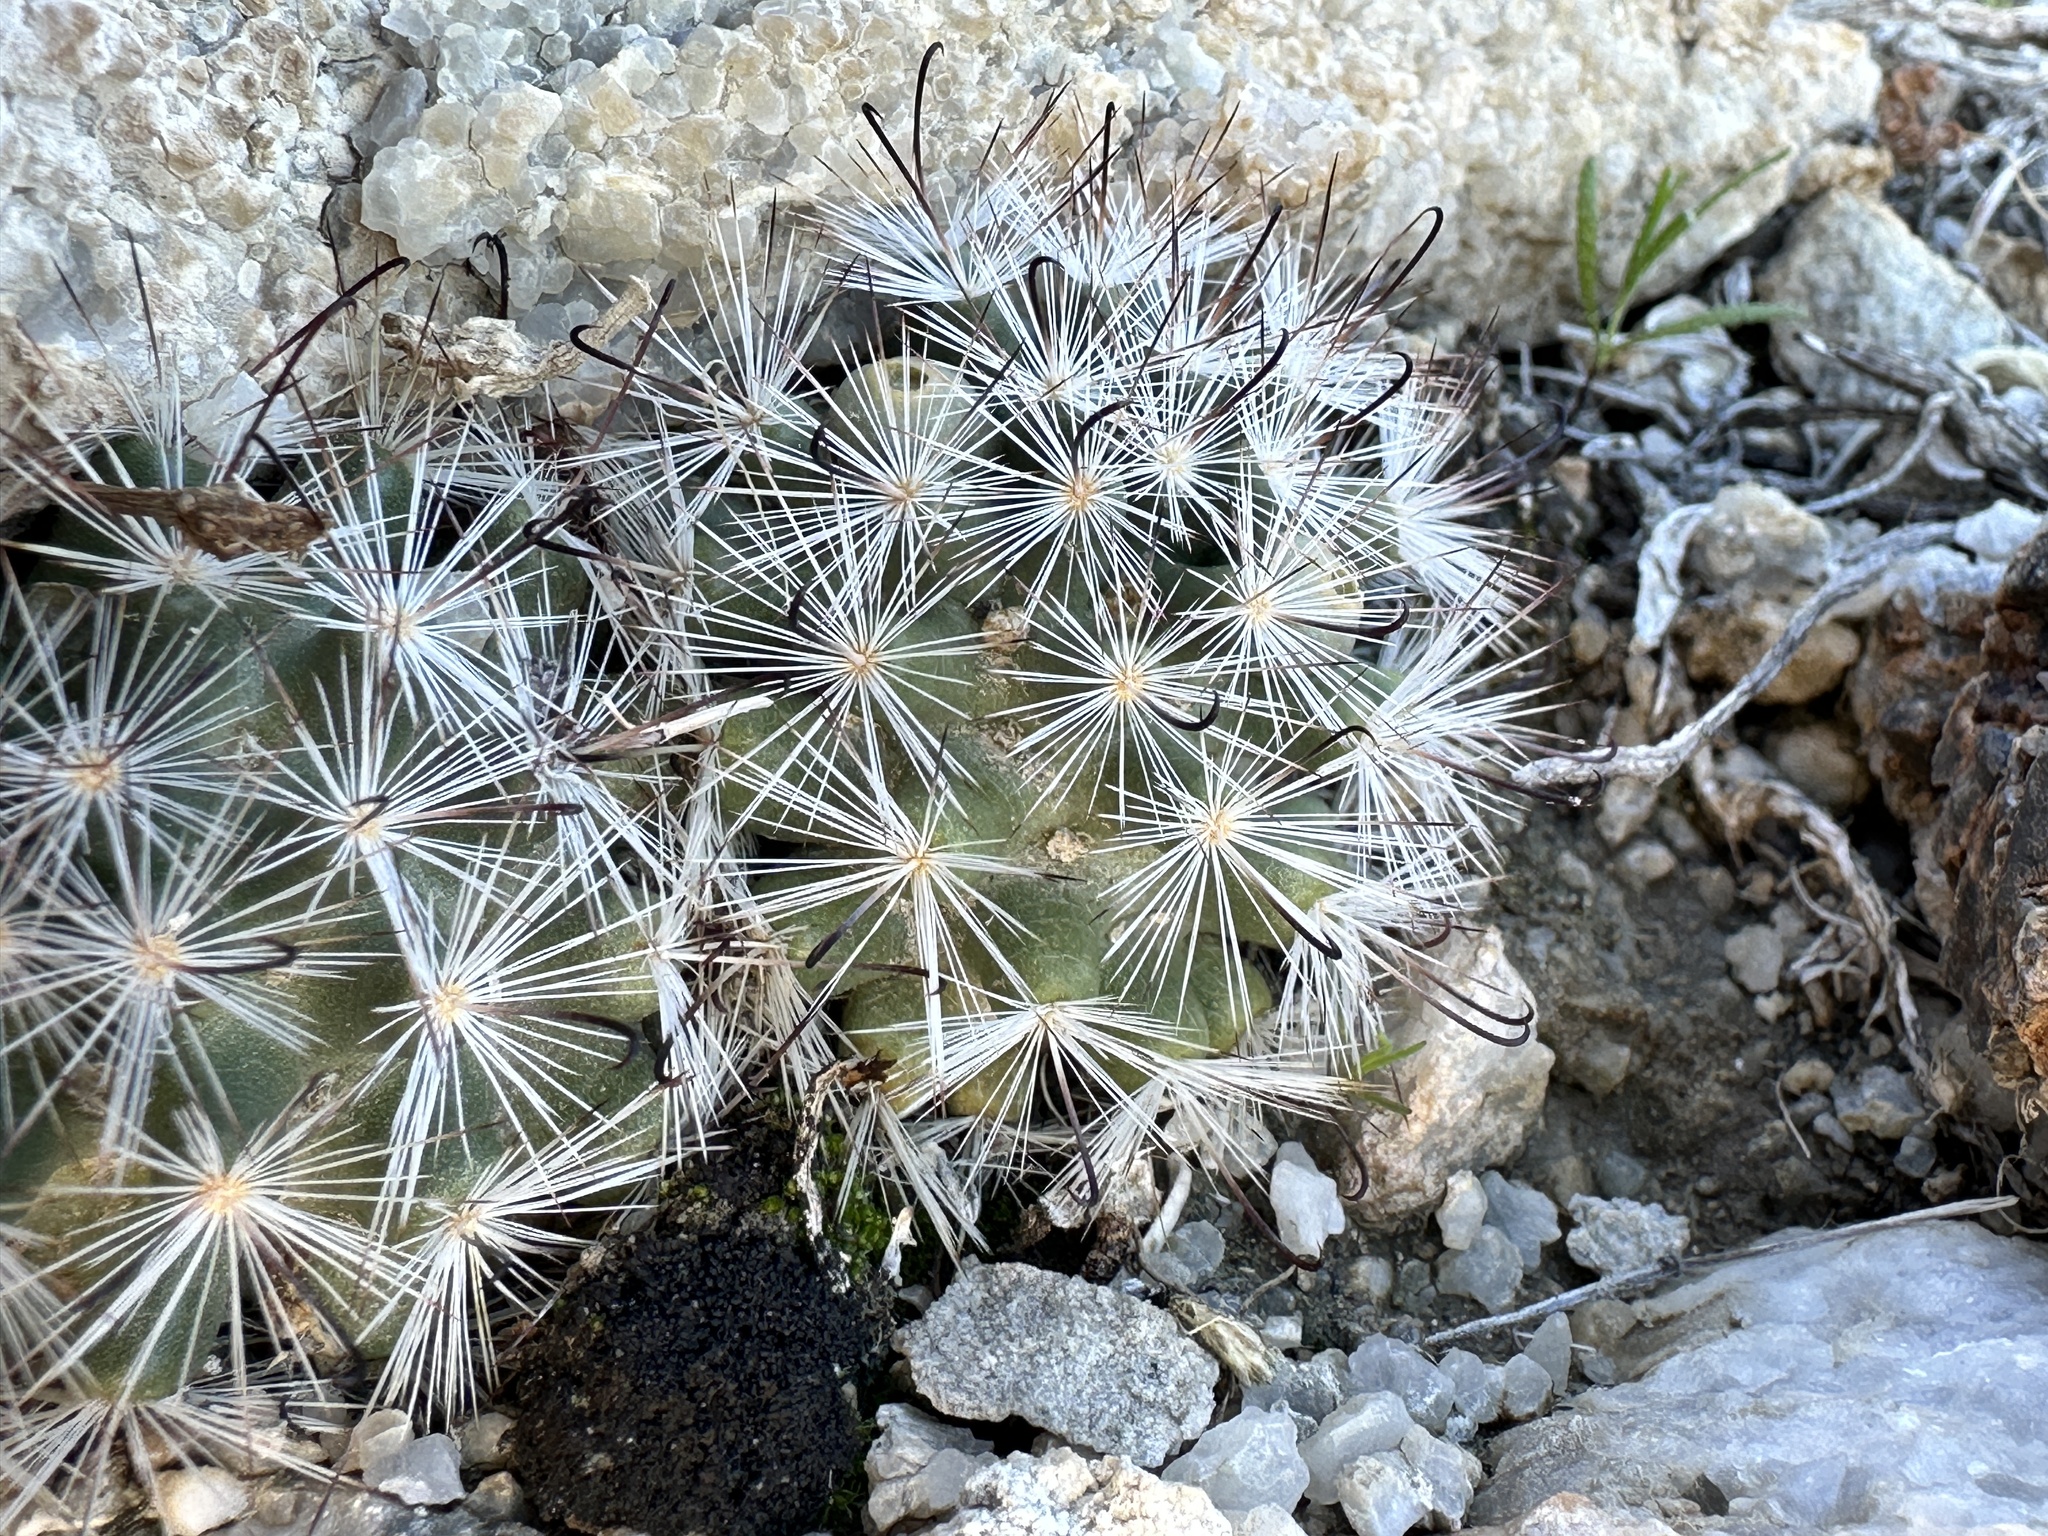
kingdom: Plantae
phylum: Tracheophyta
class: Magnoliopsida
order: Caryophyllales
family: Cactaceae
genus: Cochemiea
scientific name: Cochemiea tetrancistra
